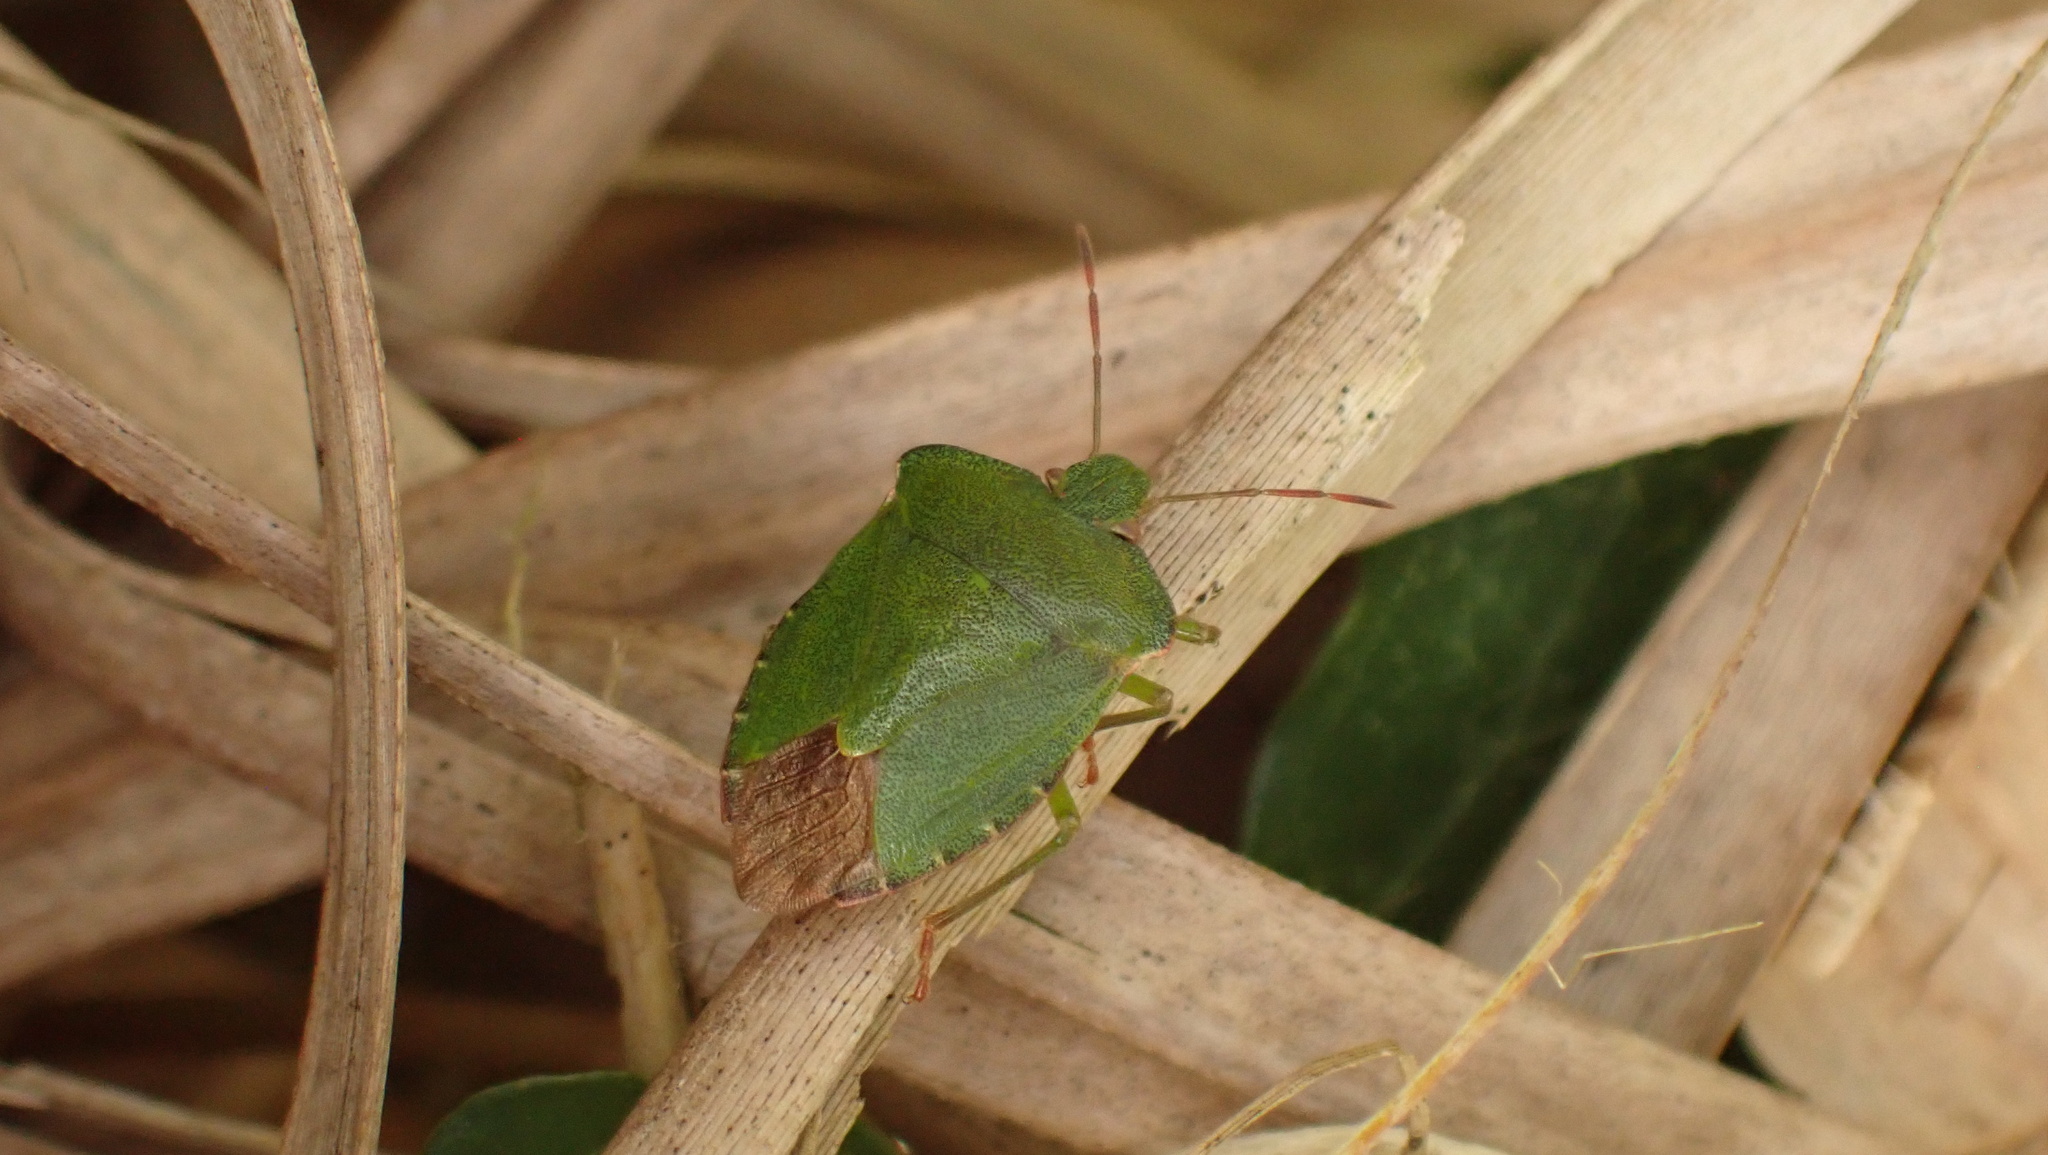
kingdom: Animalia
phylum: Arthropoda
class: Insecta
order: Hemiptera
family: Pentatomidae
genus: Palomena
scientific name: Palomena prasina
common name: Green shieldbug
